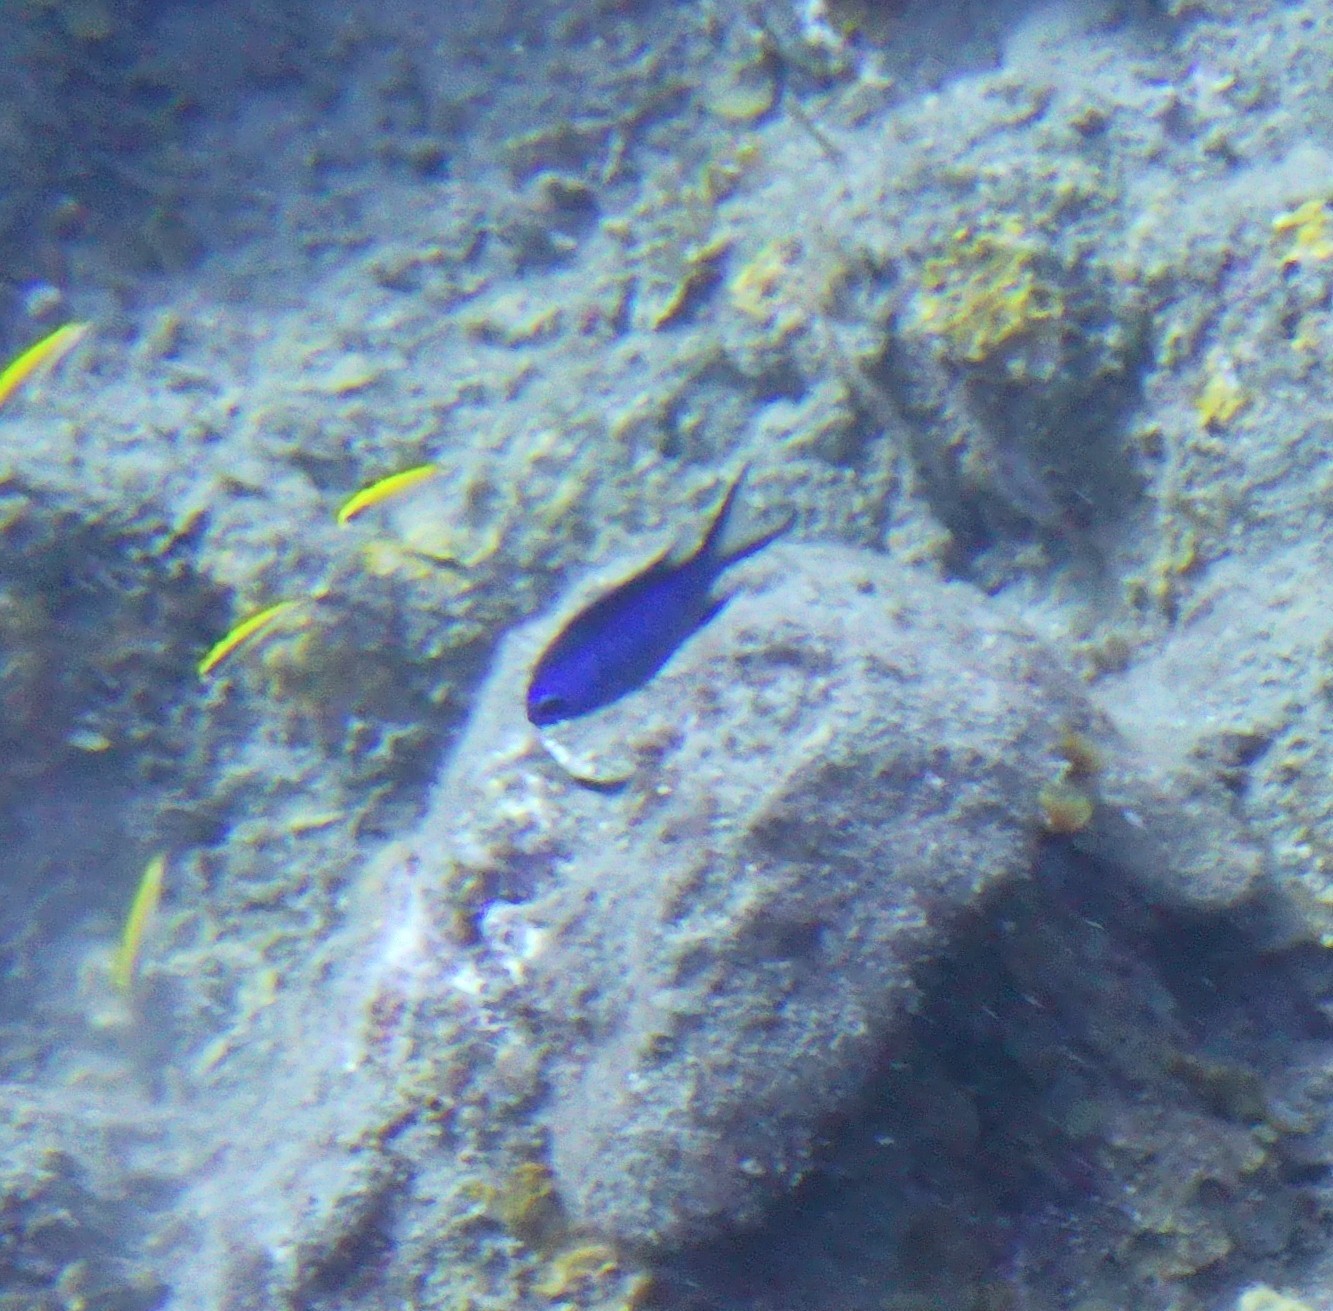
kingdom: Animalia
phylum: Chordata
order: Perciformes
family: Pomacentridae
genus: Chromis
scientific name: Chromis cyanea
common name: Blue chromis
